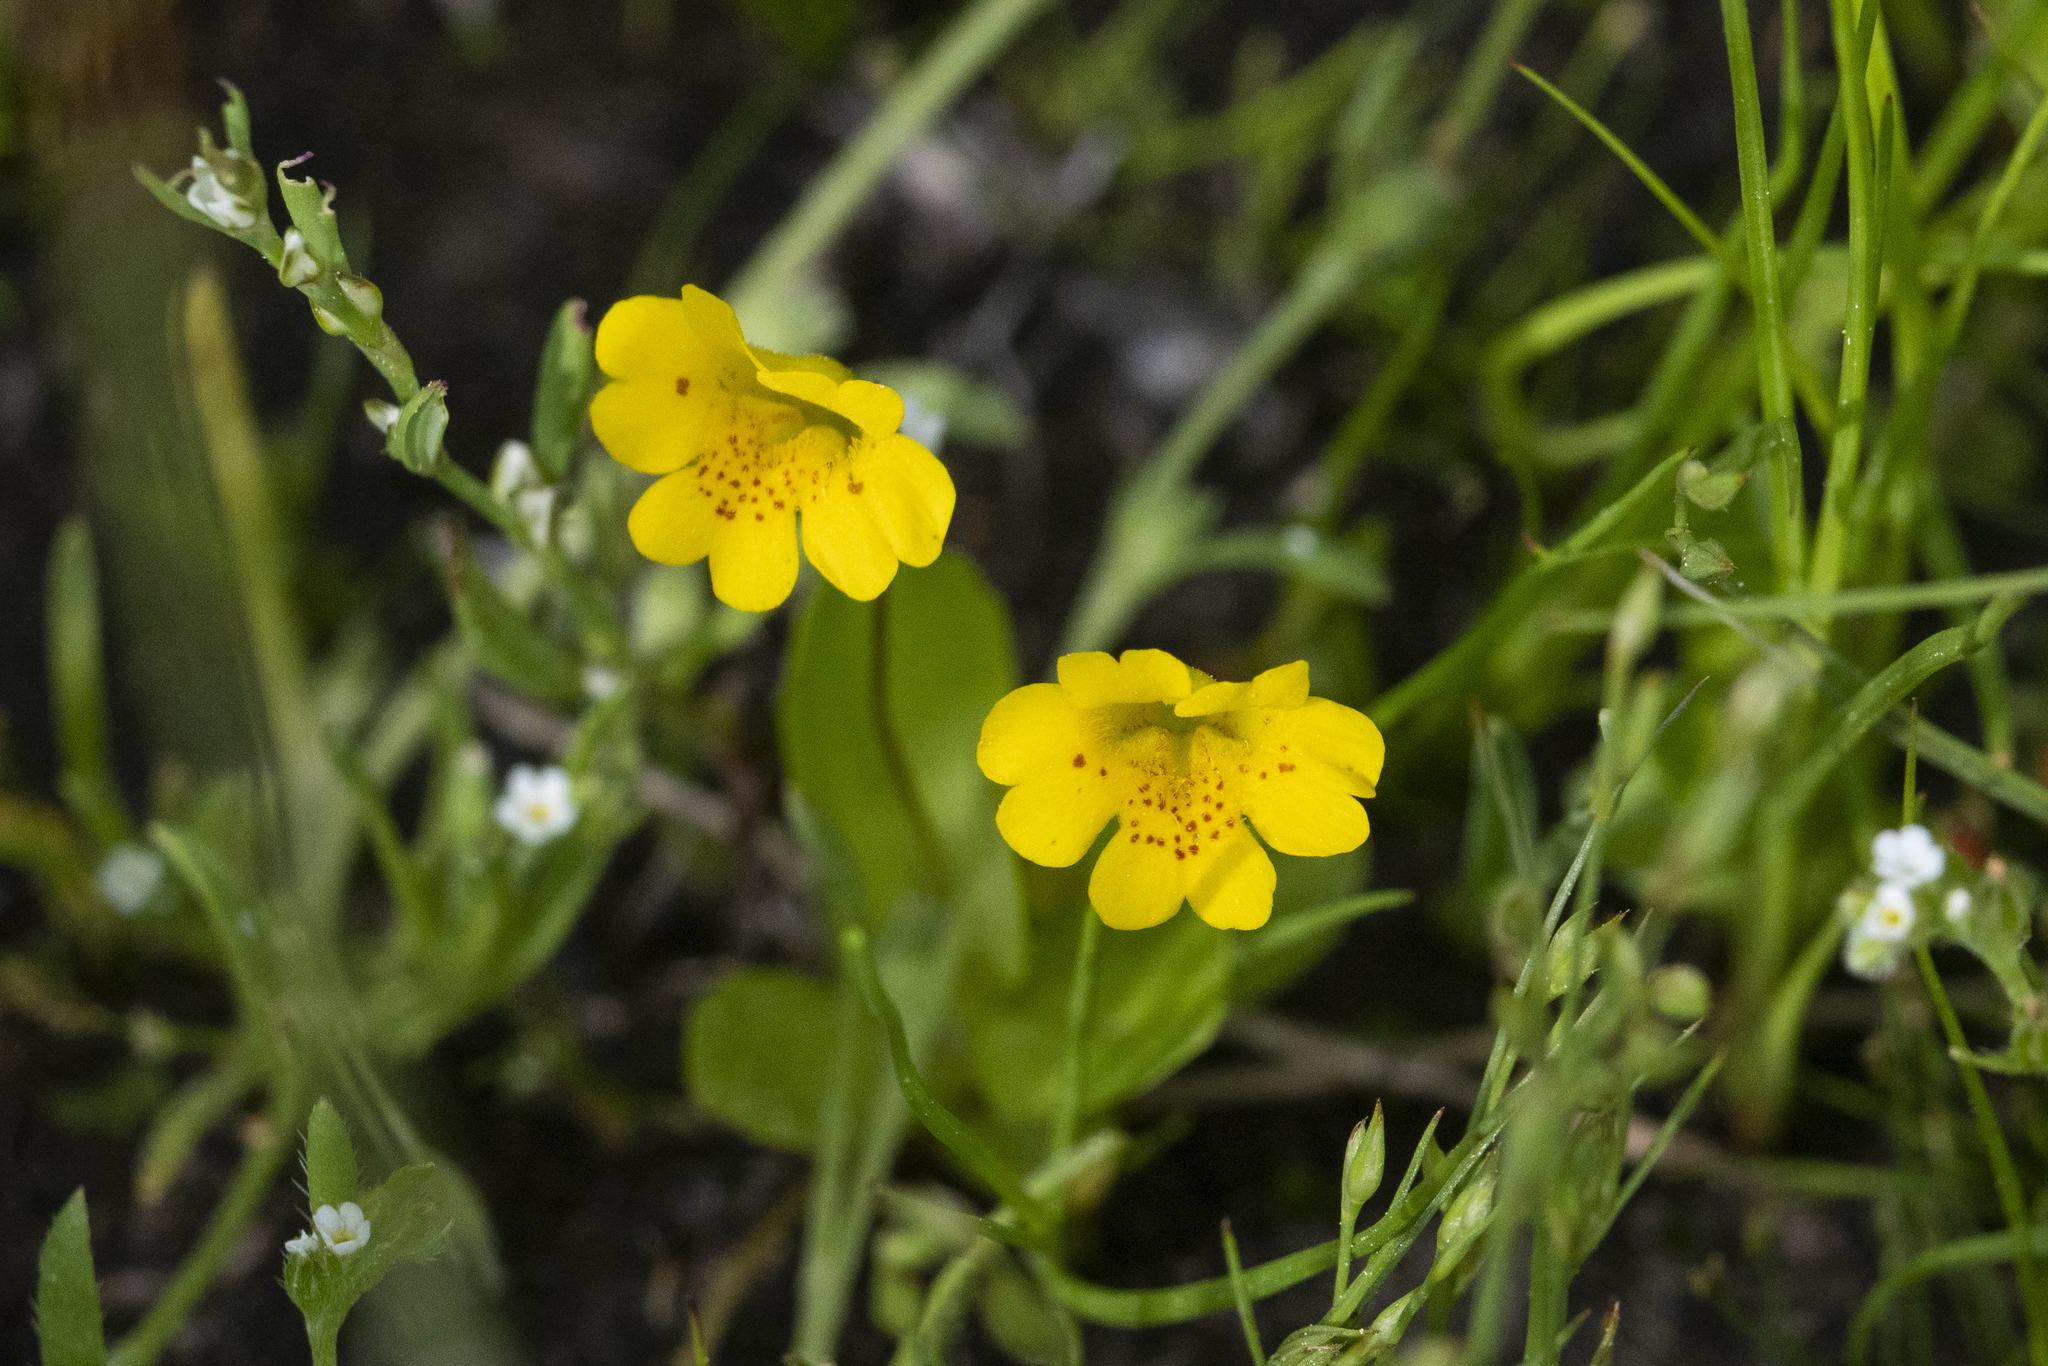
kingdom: Plantae
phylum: Tracheophyta
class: Magnoliopsida
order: Lamiales
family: Phrymaceae
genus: Erythranthe
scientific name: Erythranthe primuloides
